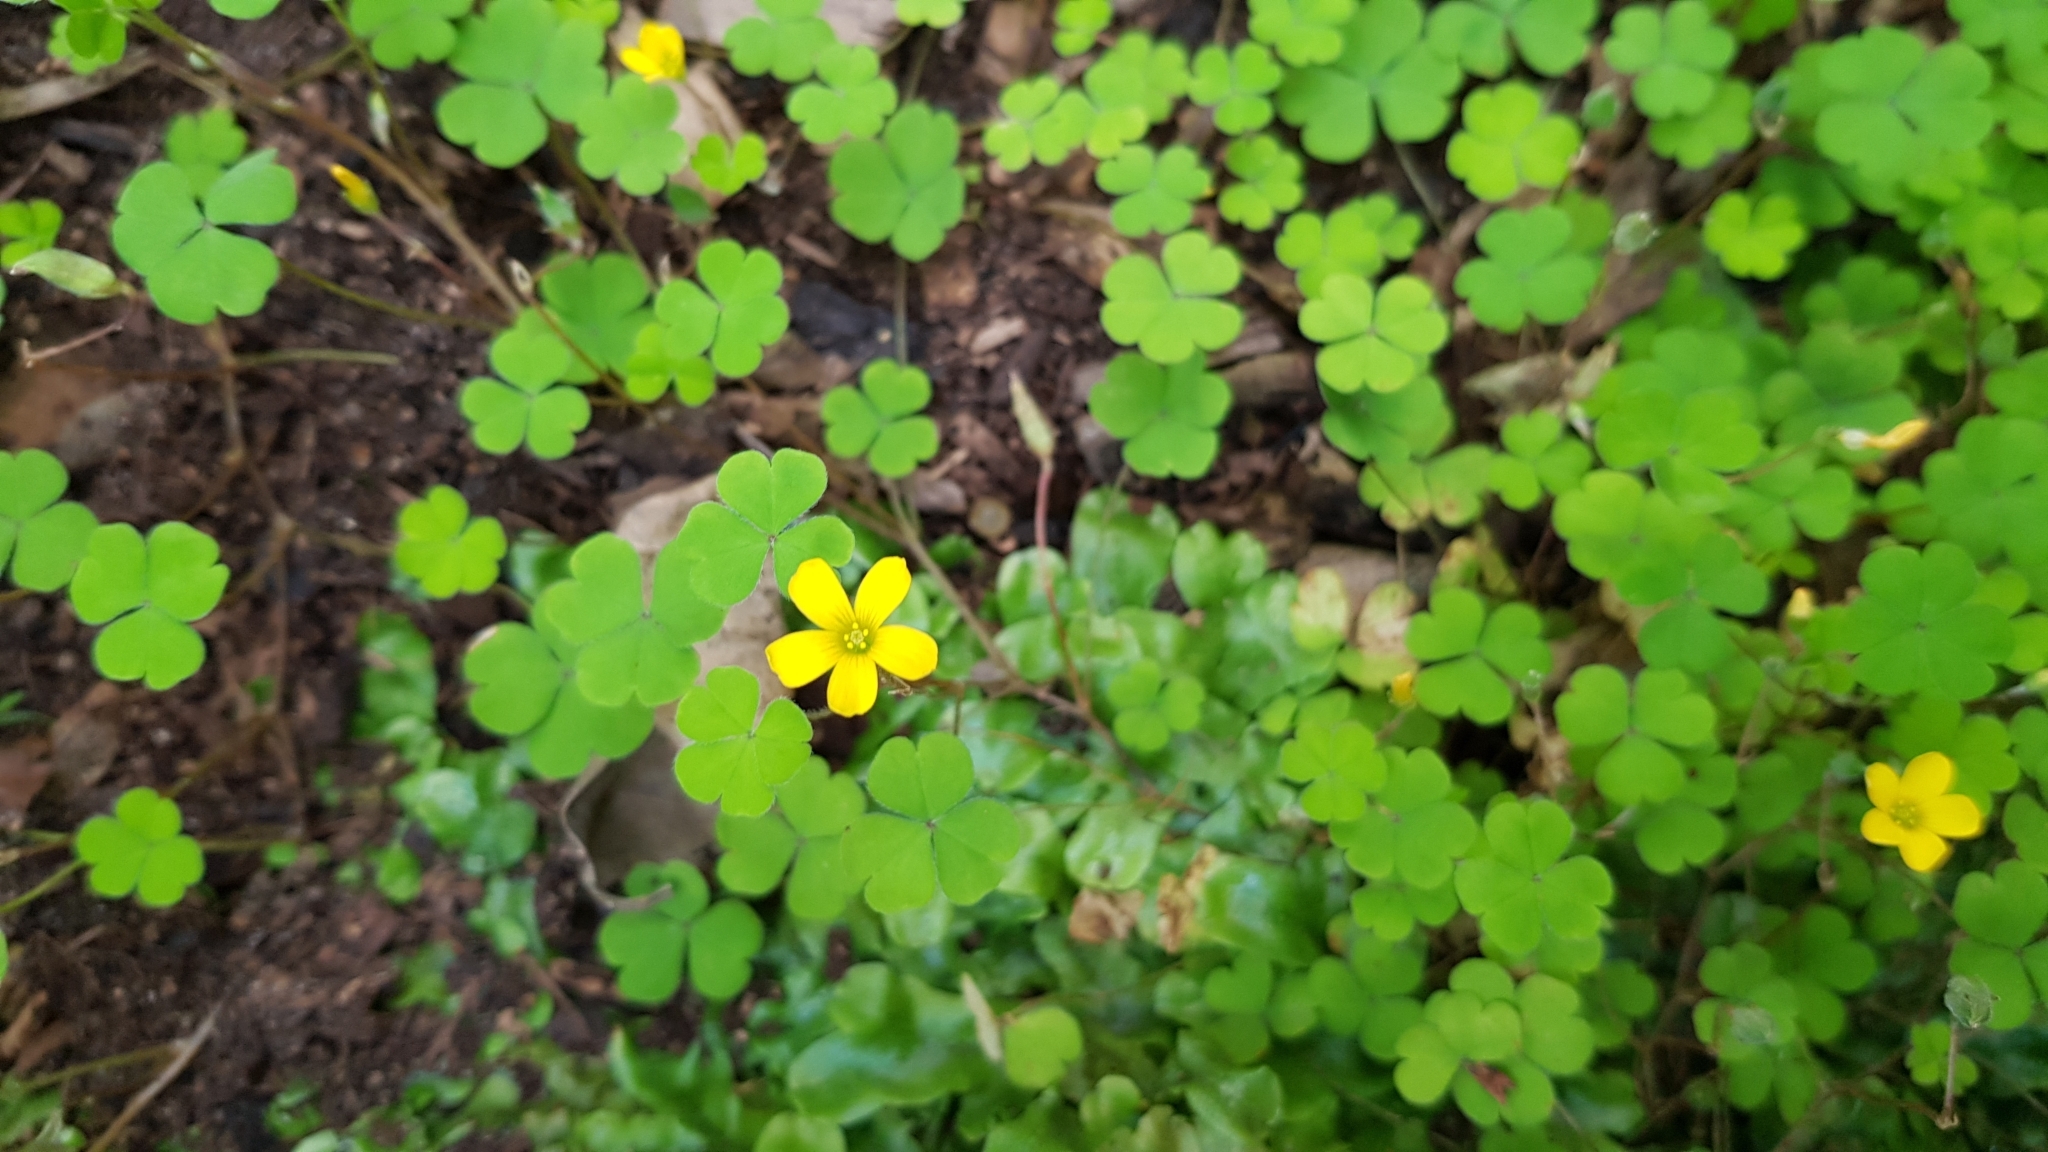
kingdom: Plantae
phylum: Tracheophyta
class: Magnoliopsida
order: Oxalidales
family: Oxalidaceae
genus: Oxalis
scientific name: Oxalis exilis
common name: Least yellow-sorrel
